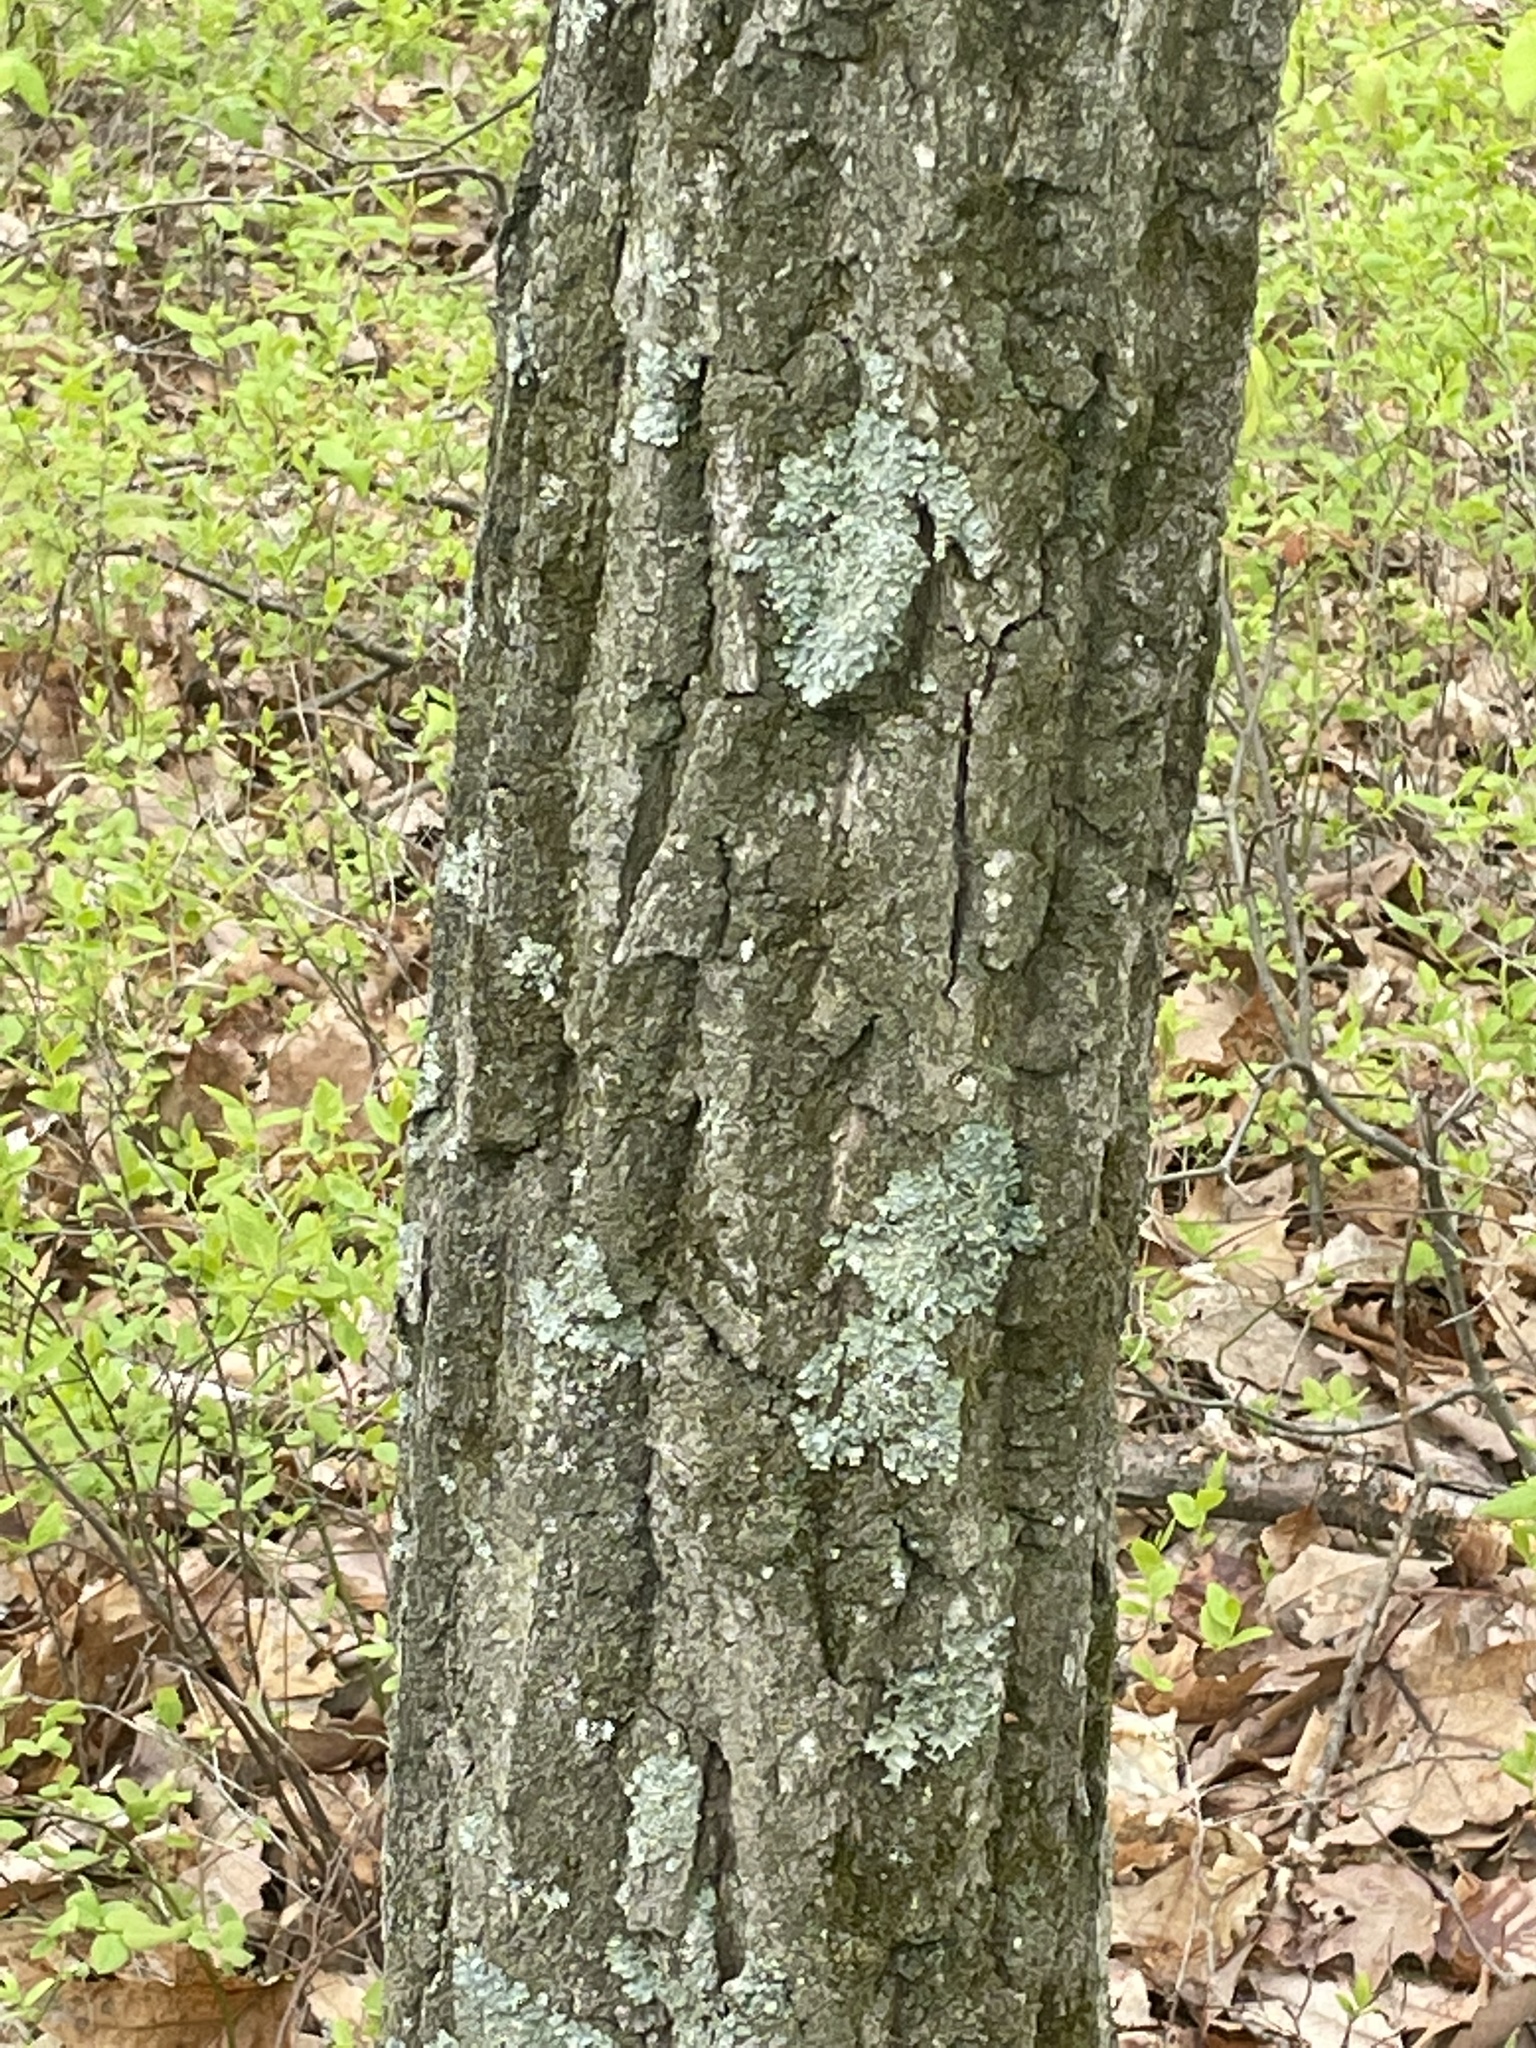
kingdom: Plantae
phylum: Tracheophyta
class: Magnoliopsida
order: Fagales
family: Fagaceae
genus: Quercus
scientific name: Quercus montana
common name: Chestnut oak
